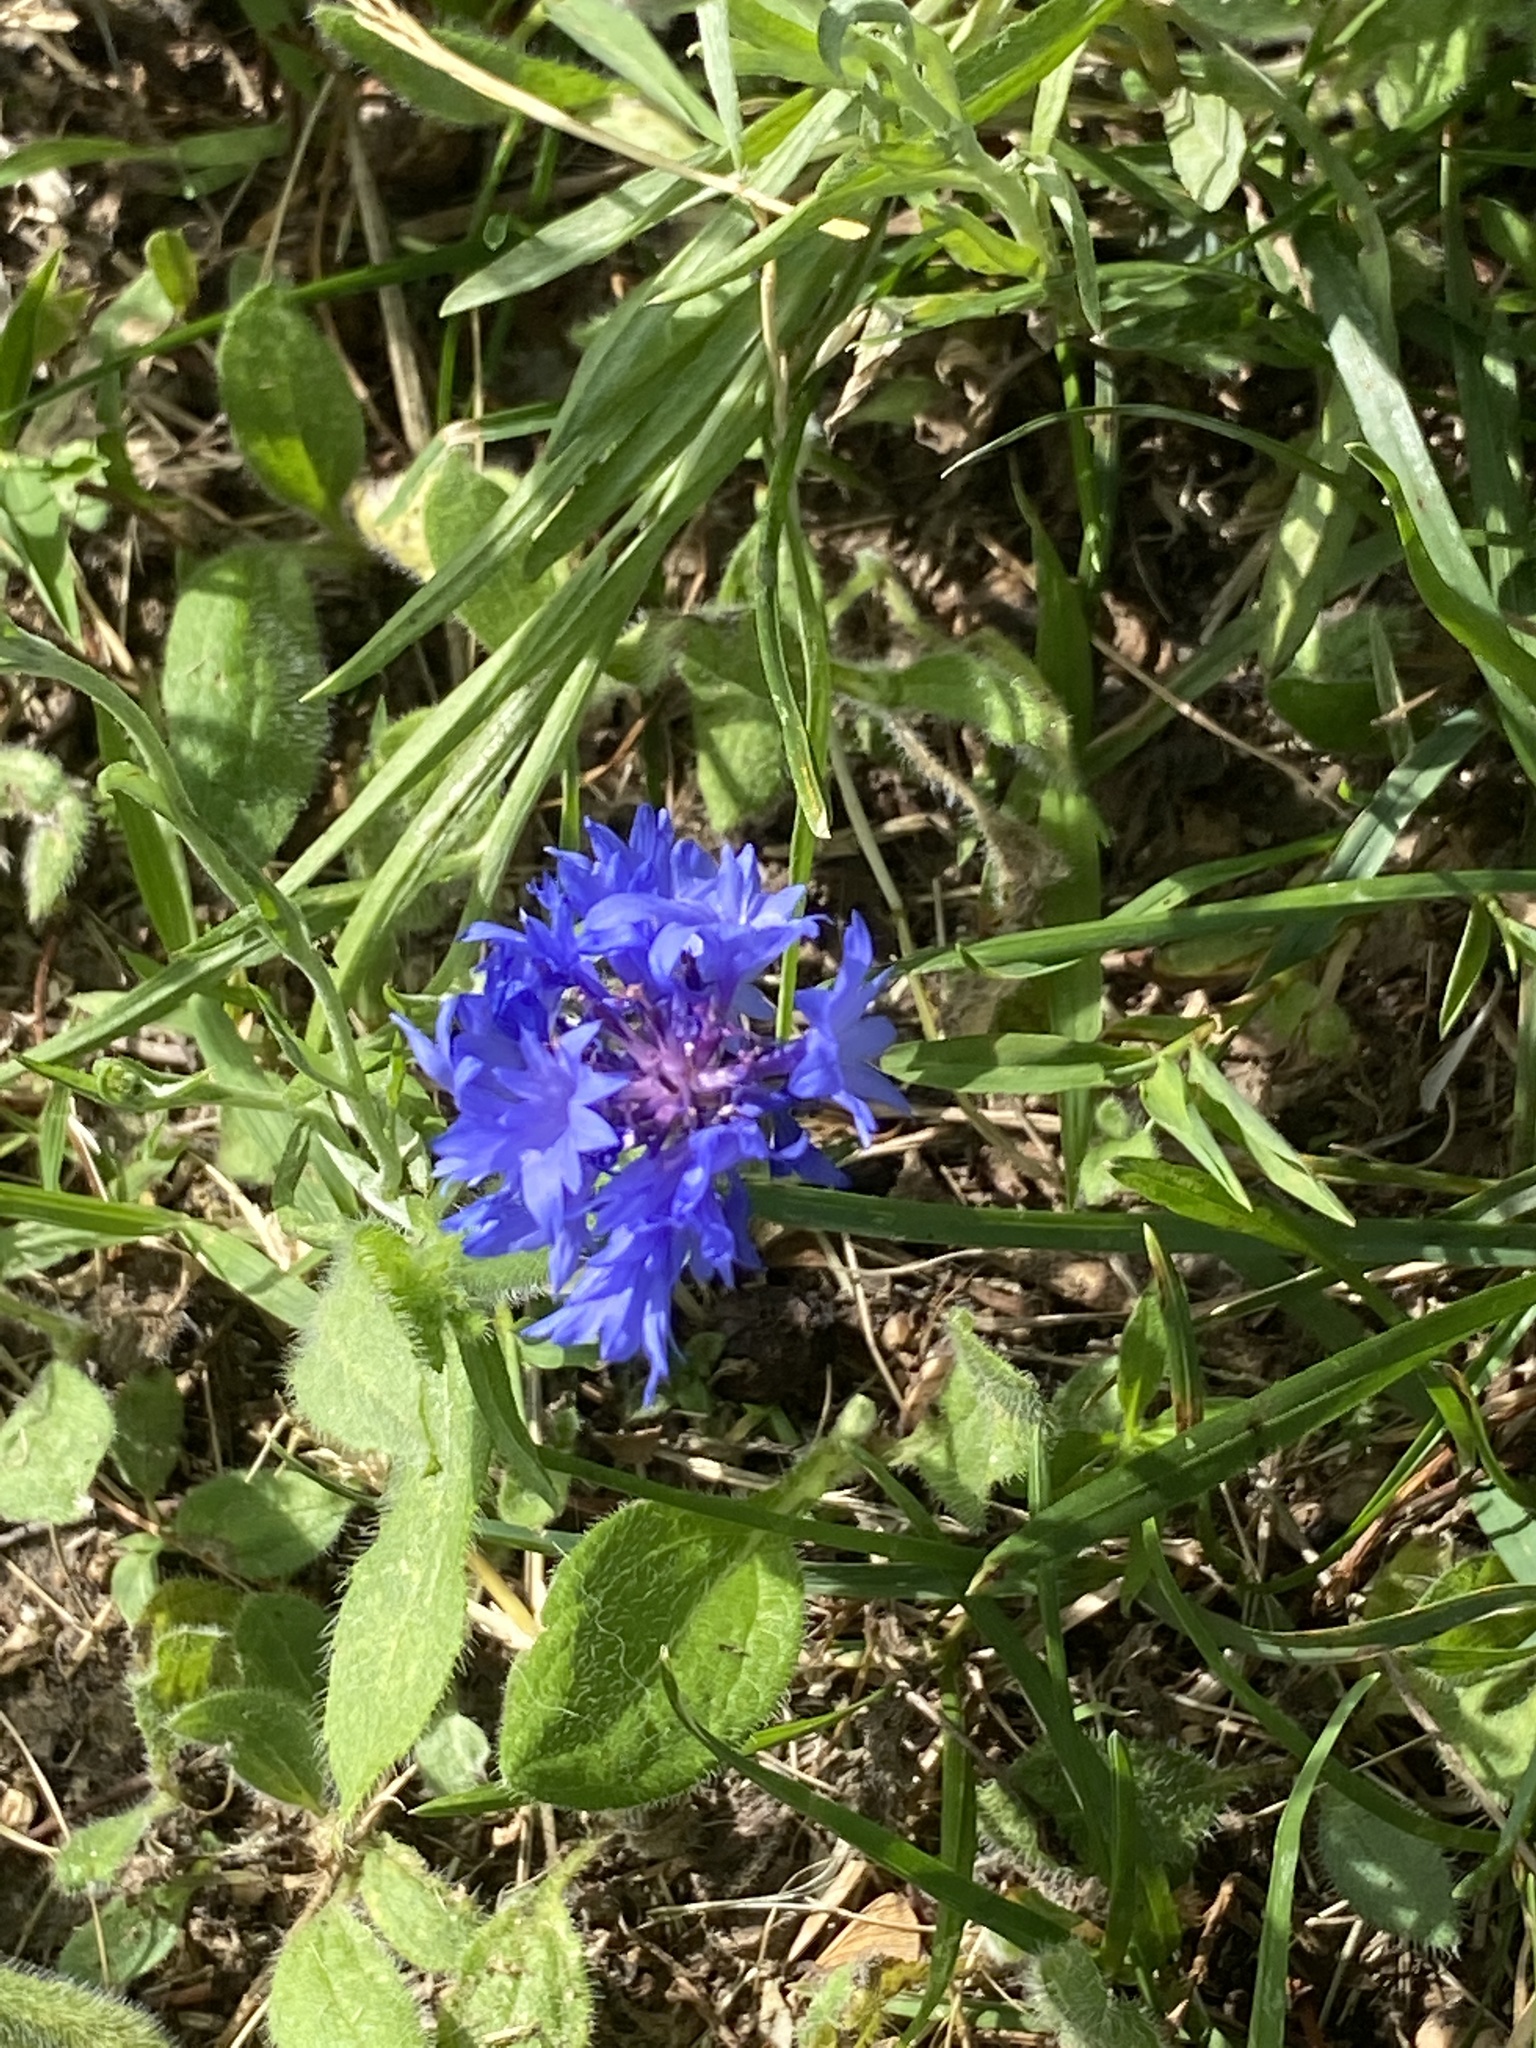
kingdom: Plantae
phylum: Tracheophyta
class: Magnoliopsida
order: Asterales
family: Asteraceae
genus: Centaurea
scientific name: Centaurea cyanus
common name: Cornflower
